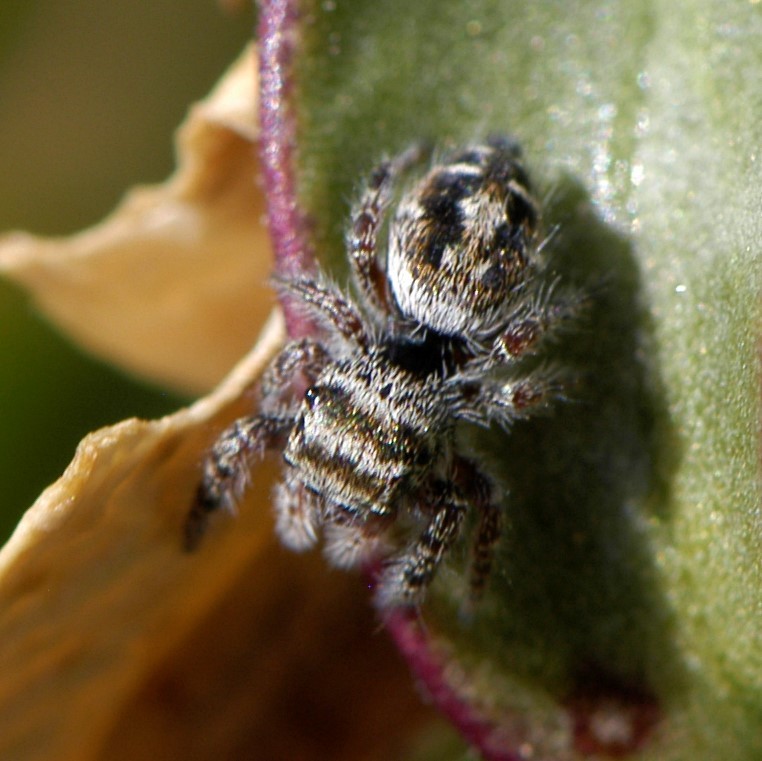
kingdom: Animalia
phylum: Arthropoda
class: Arachnida
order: Araneae
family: Salticidae
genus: Phidippus
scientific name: Phidippus comatus
